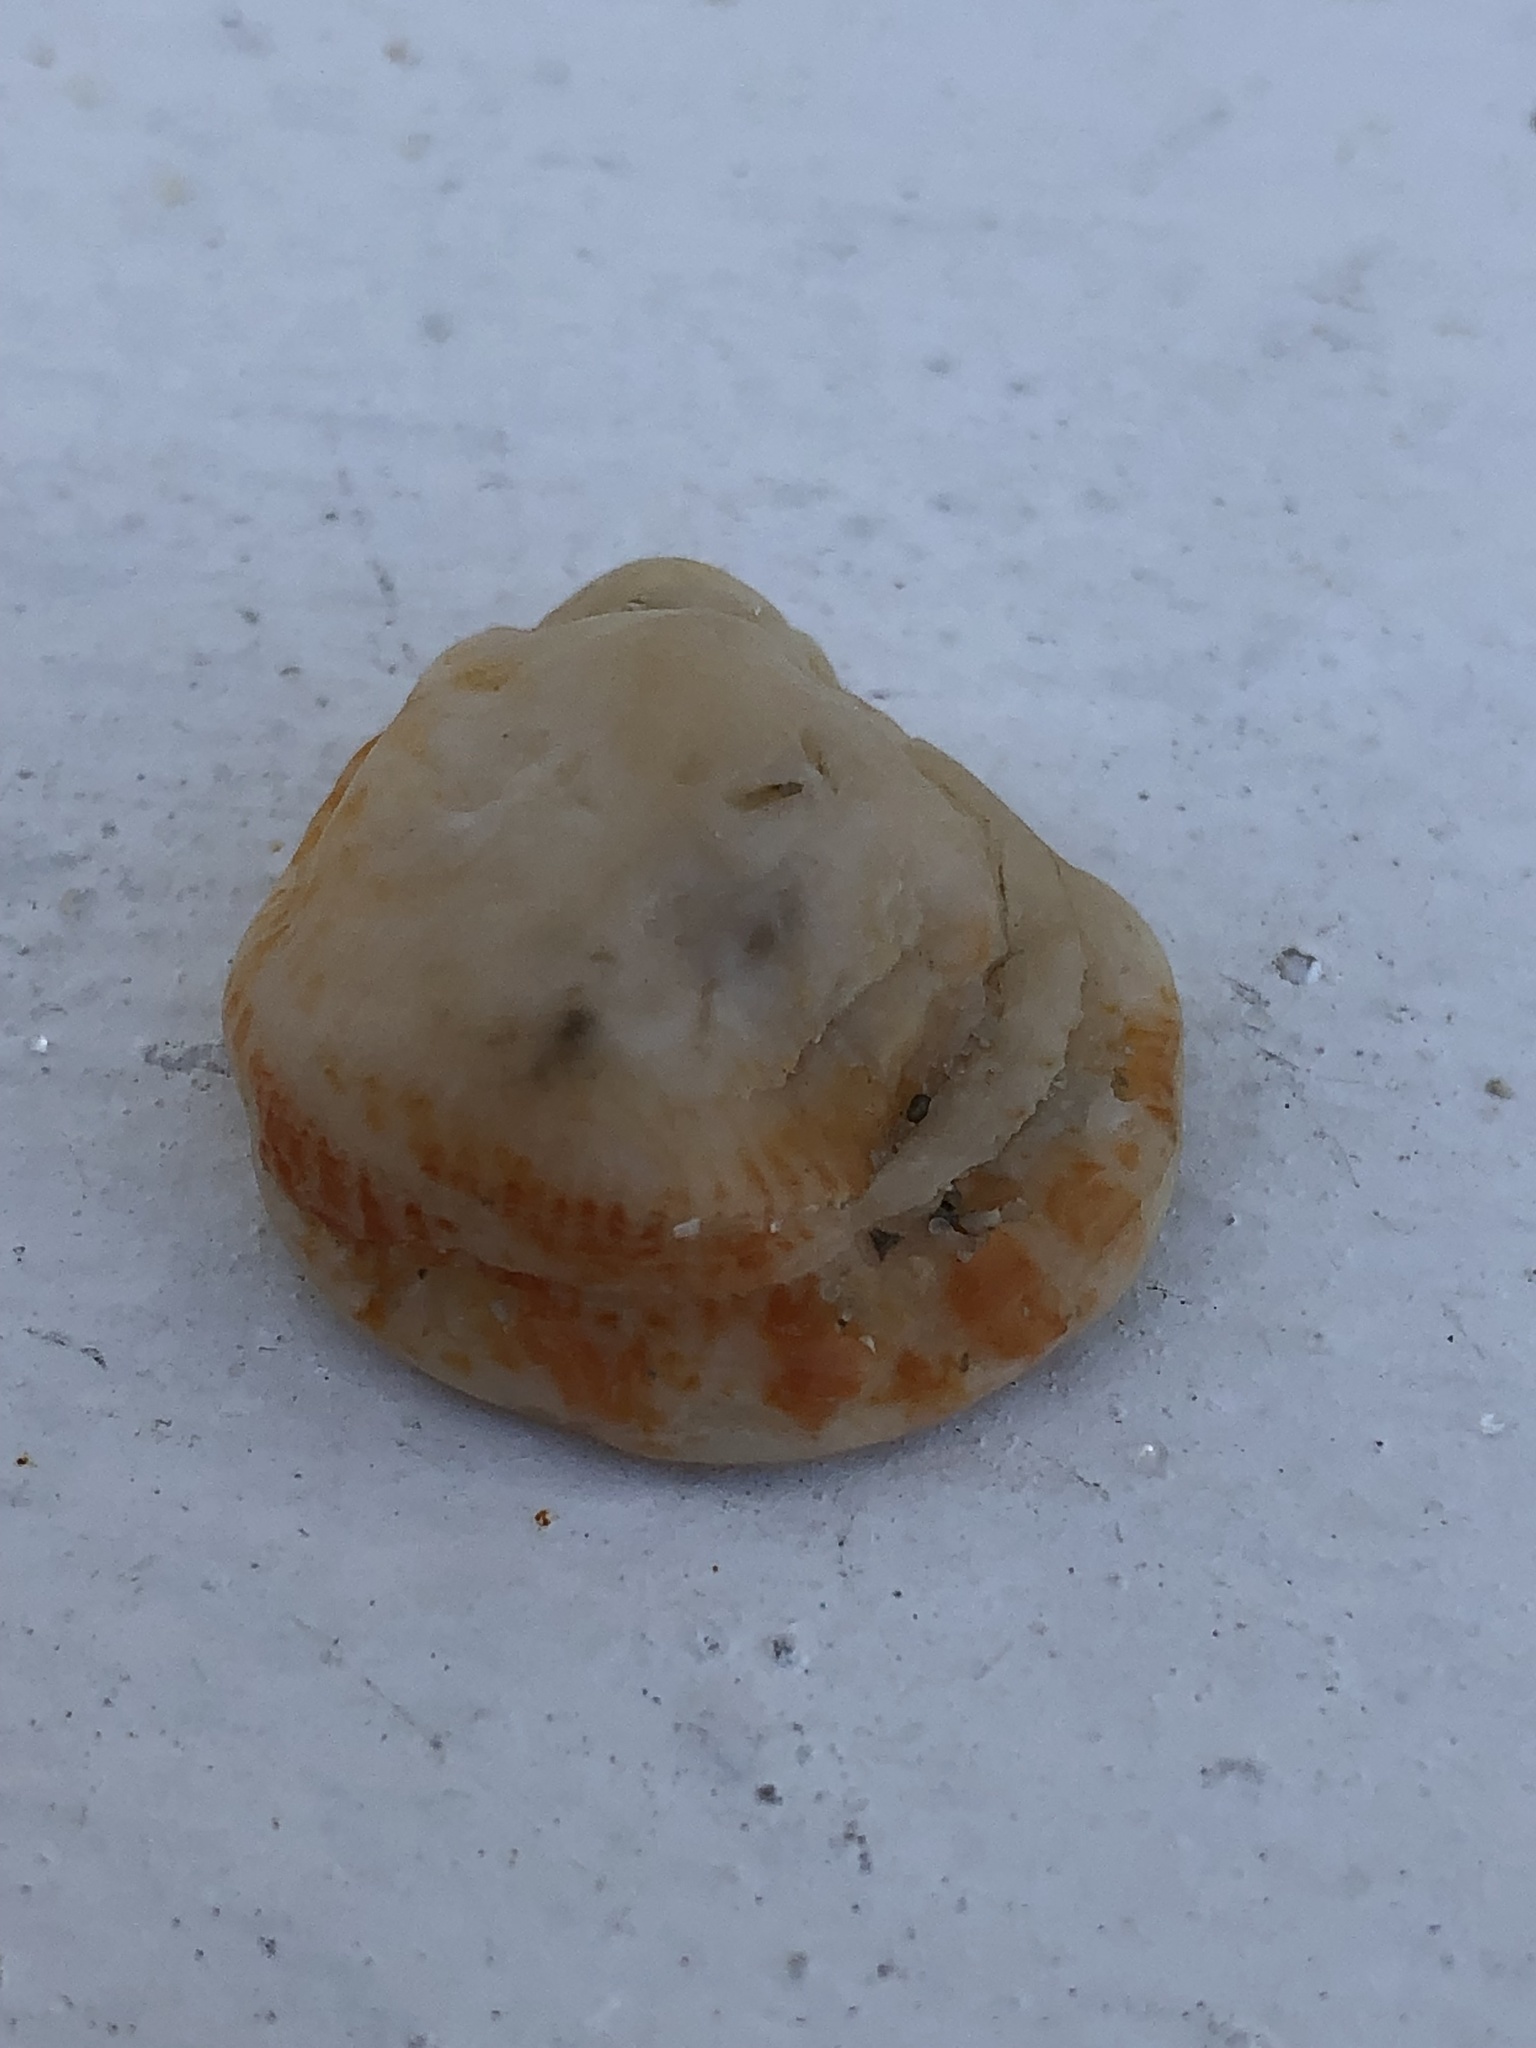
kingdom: Animalia
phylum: Mollusca
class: Bivalvia
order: Venerida
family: Chamidae
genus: Chama
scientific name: Chama congregata
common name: Corrugate jewelbox
